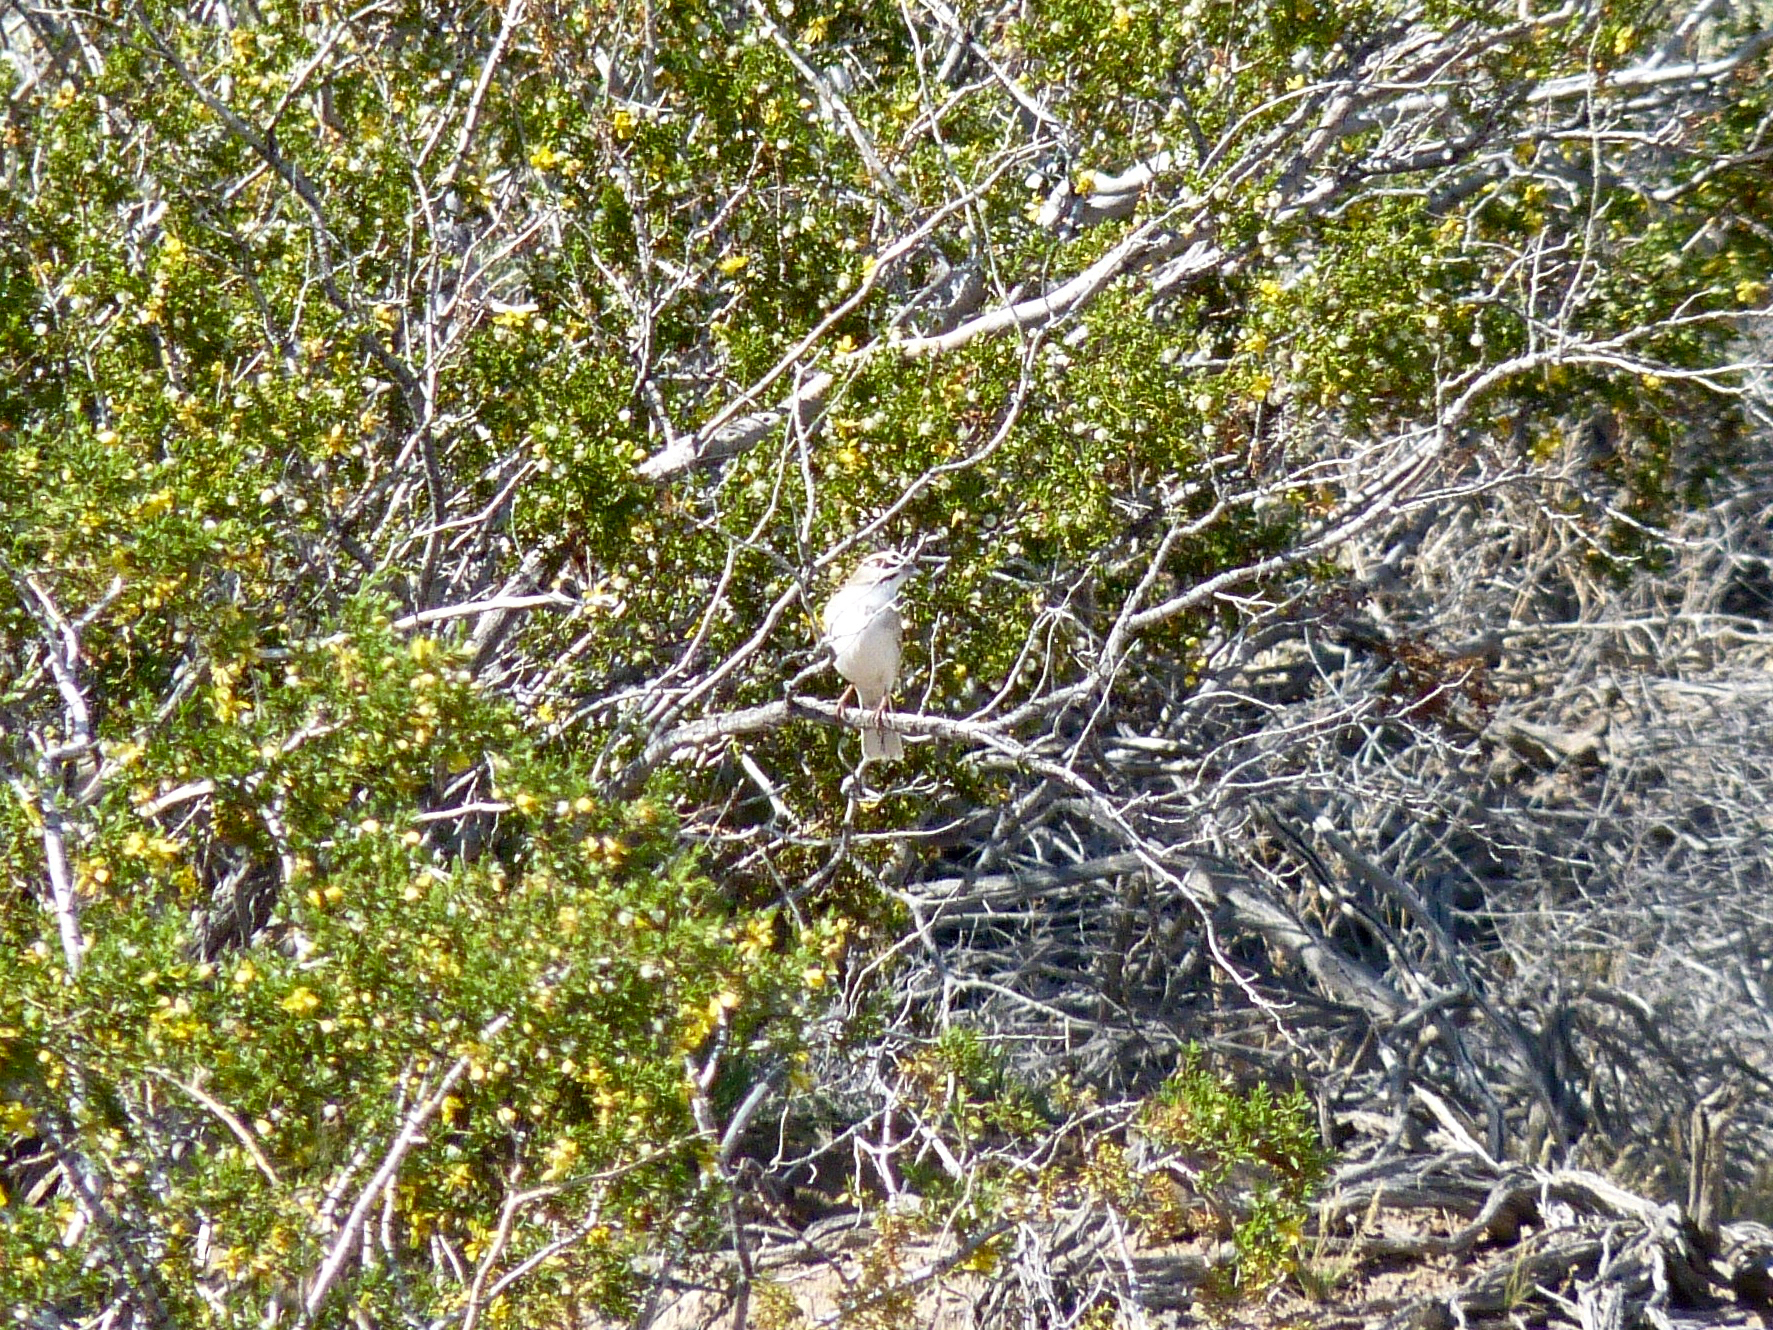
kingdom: Animalia
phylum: Chordata
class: Aves
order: Passeriformes
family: Passerellidae
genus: Chondestes
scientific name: Chondestes grammacus
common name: Lark sparrow
